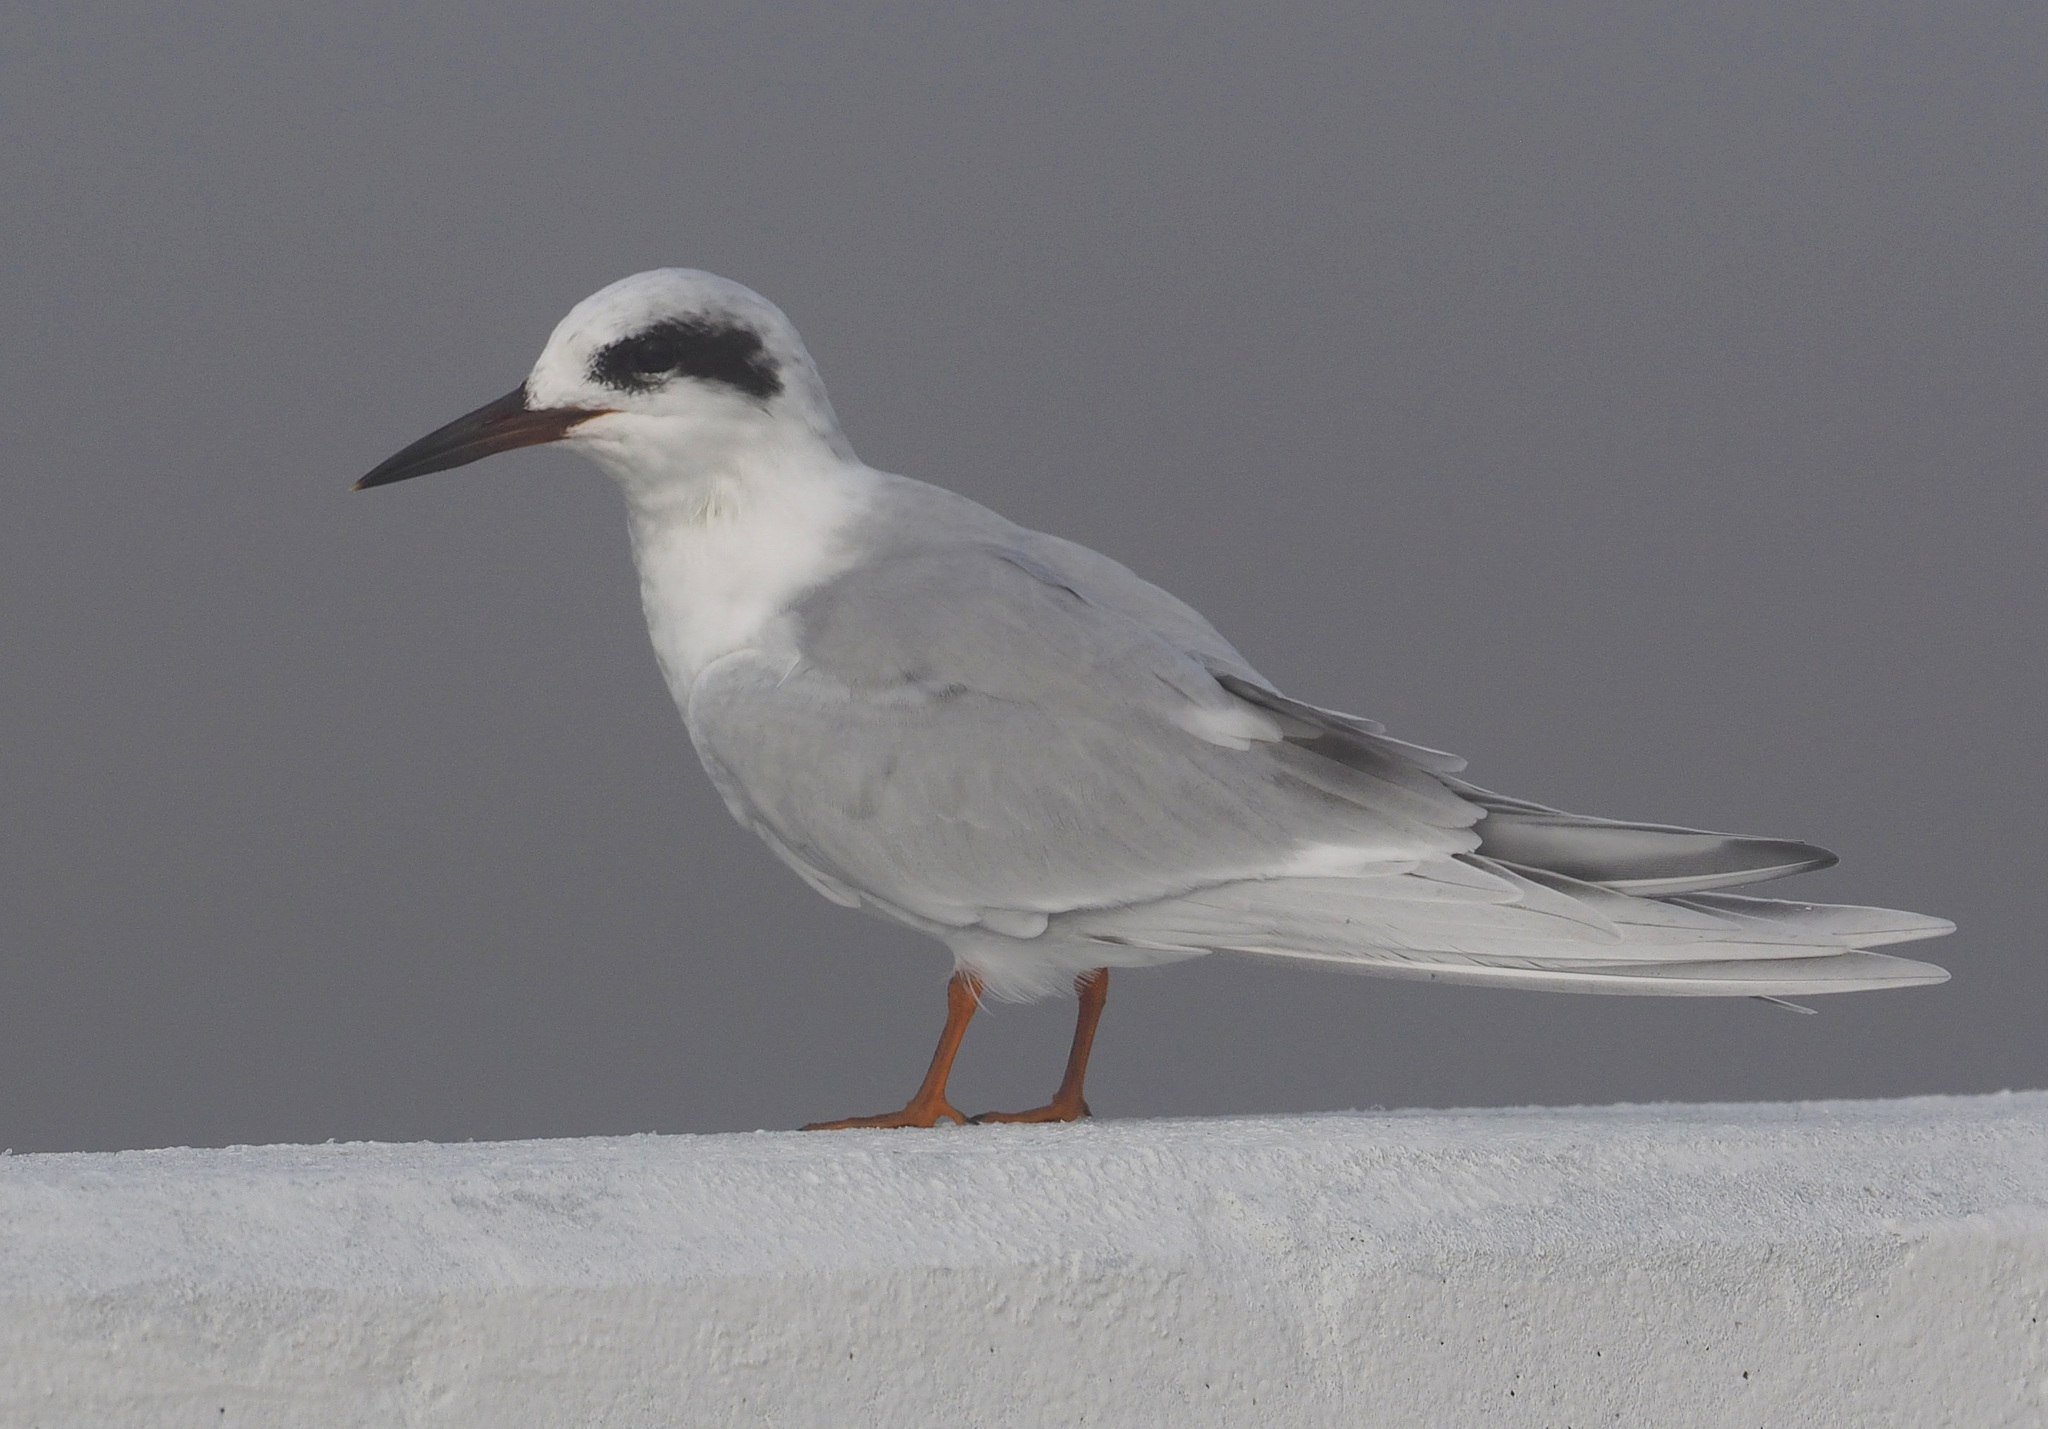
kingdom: Animalia
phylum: Chordata
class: Aves
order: Charadriiformes
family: Laridae
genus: Sterna
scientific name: Sterna forsteri
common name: Forster's tern
